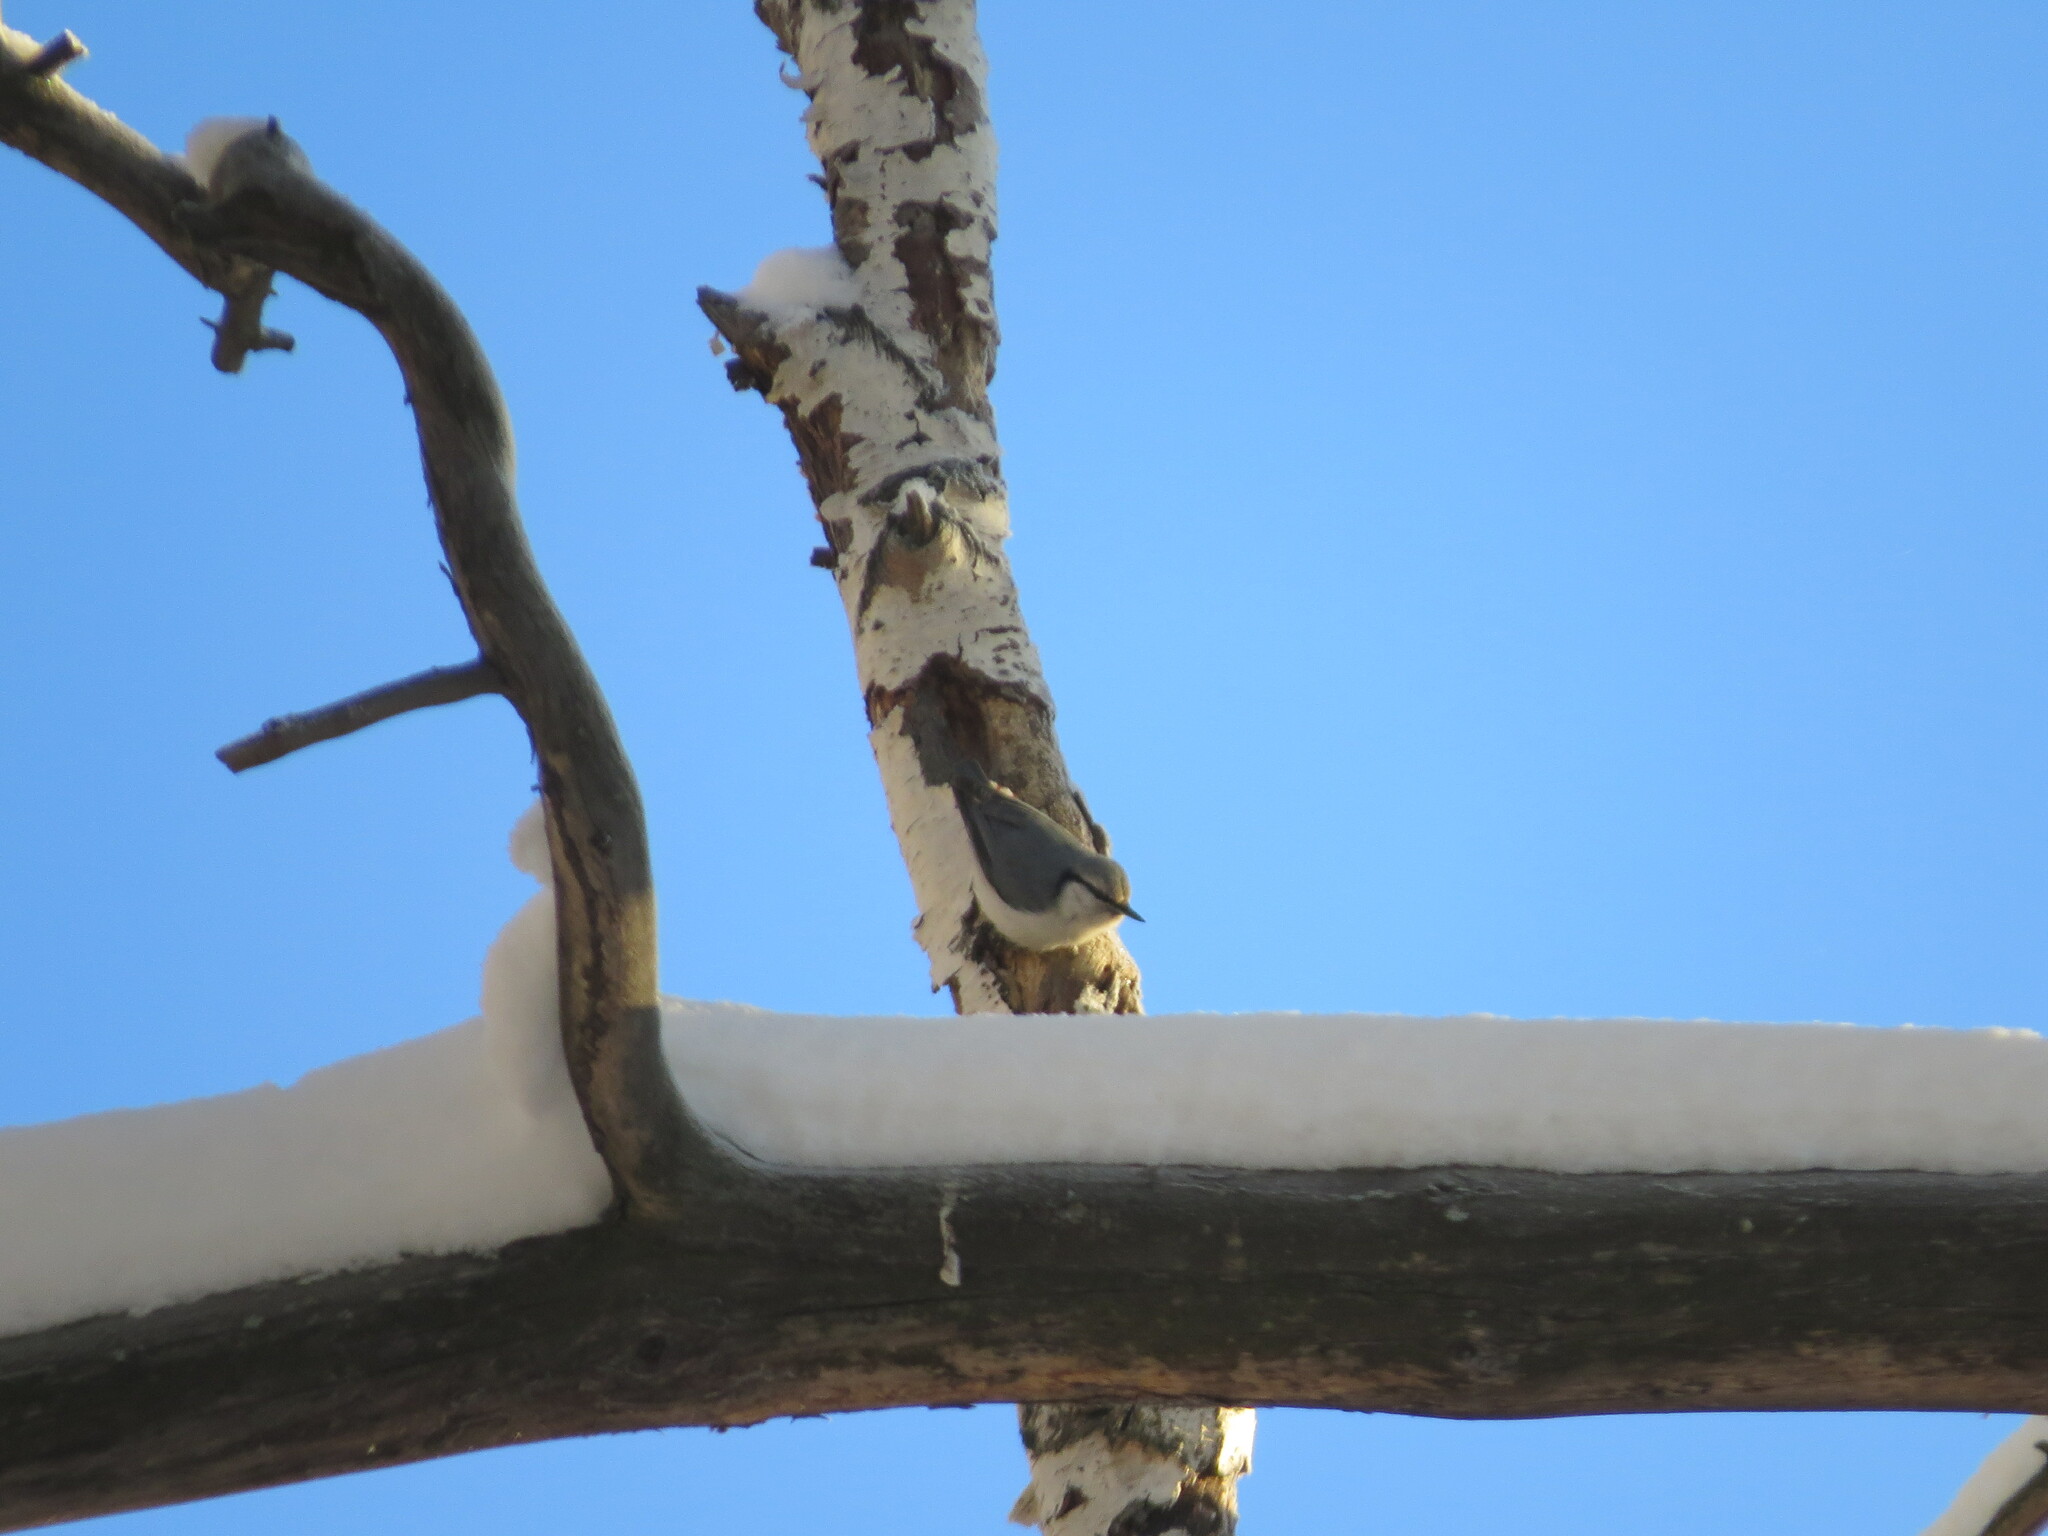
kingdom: Animalia
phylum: Chordata
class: Aves
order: Passeriformes
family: Sittidae
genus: Sitta
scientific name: Sitta europaea
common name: Eurasian nuthatch
